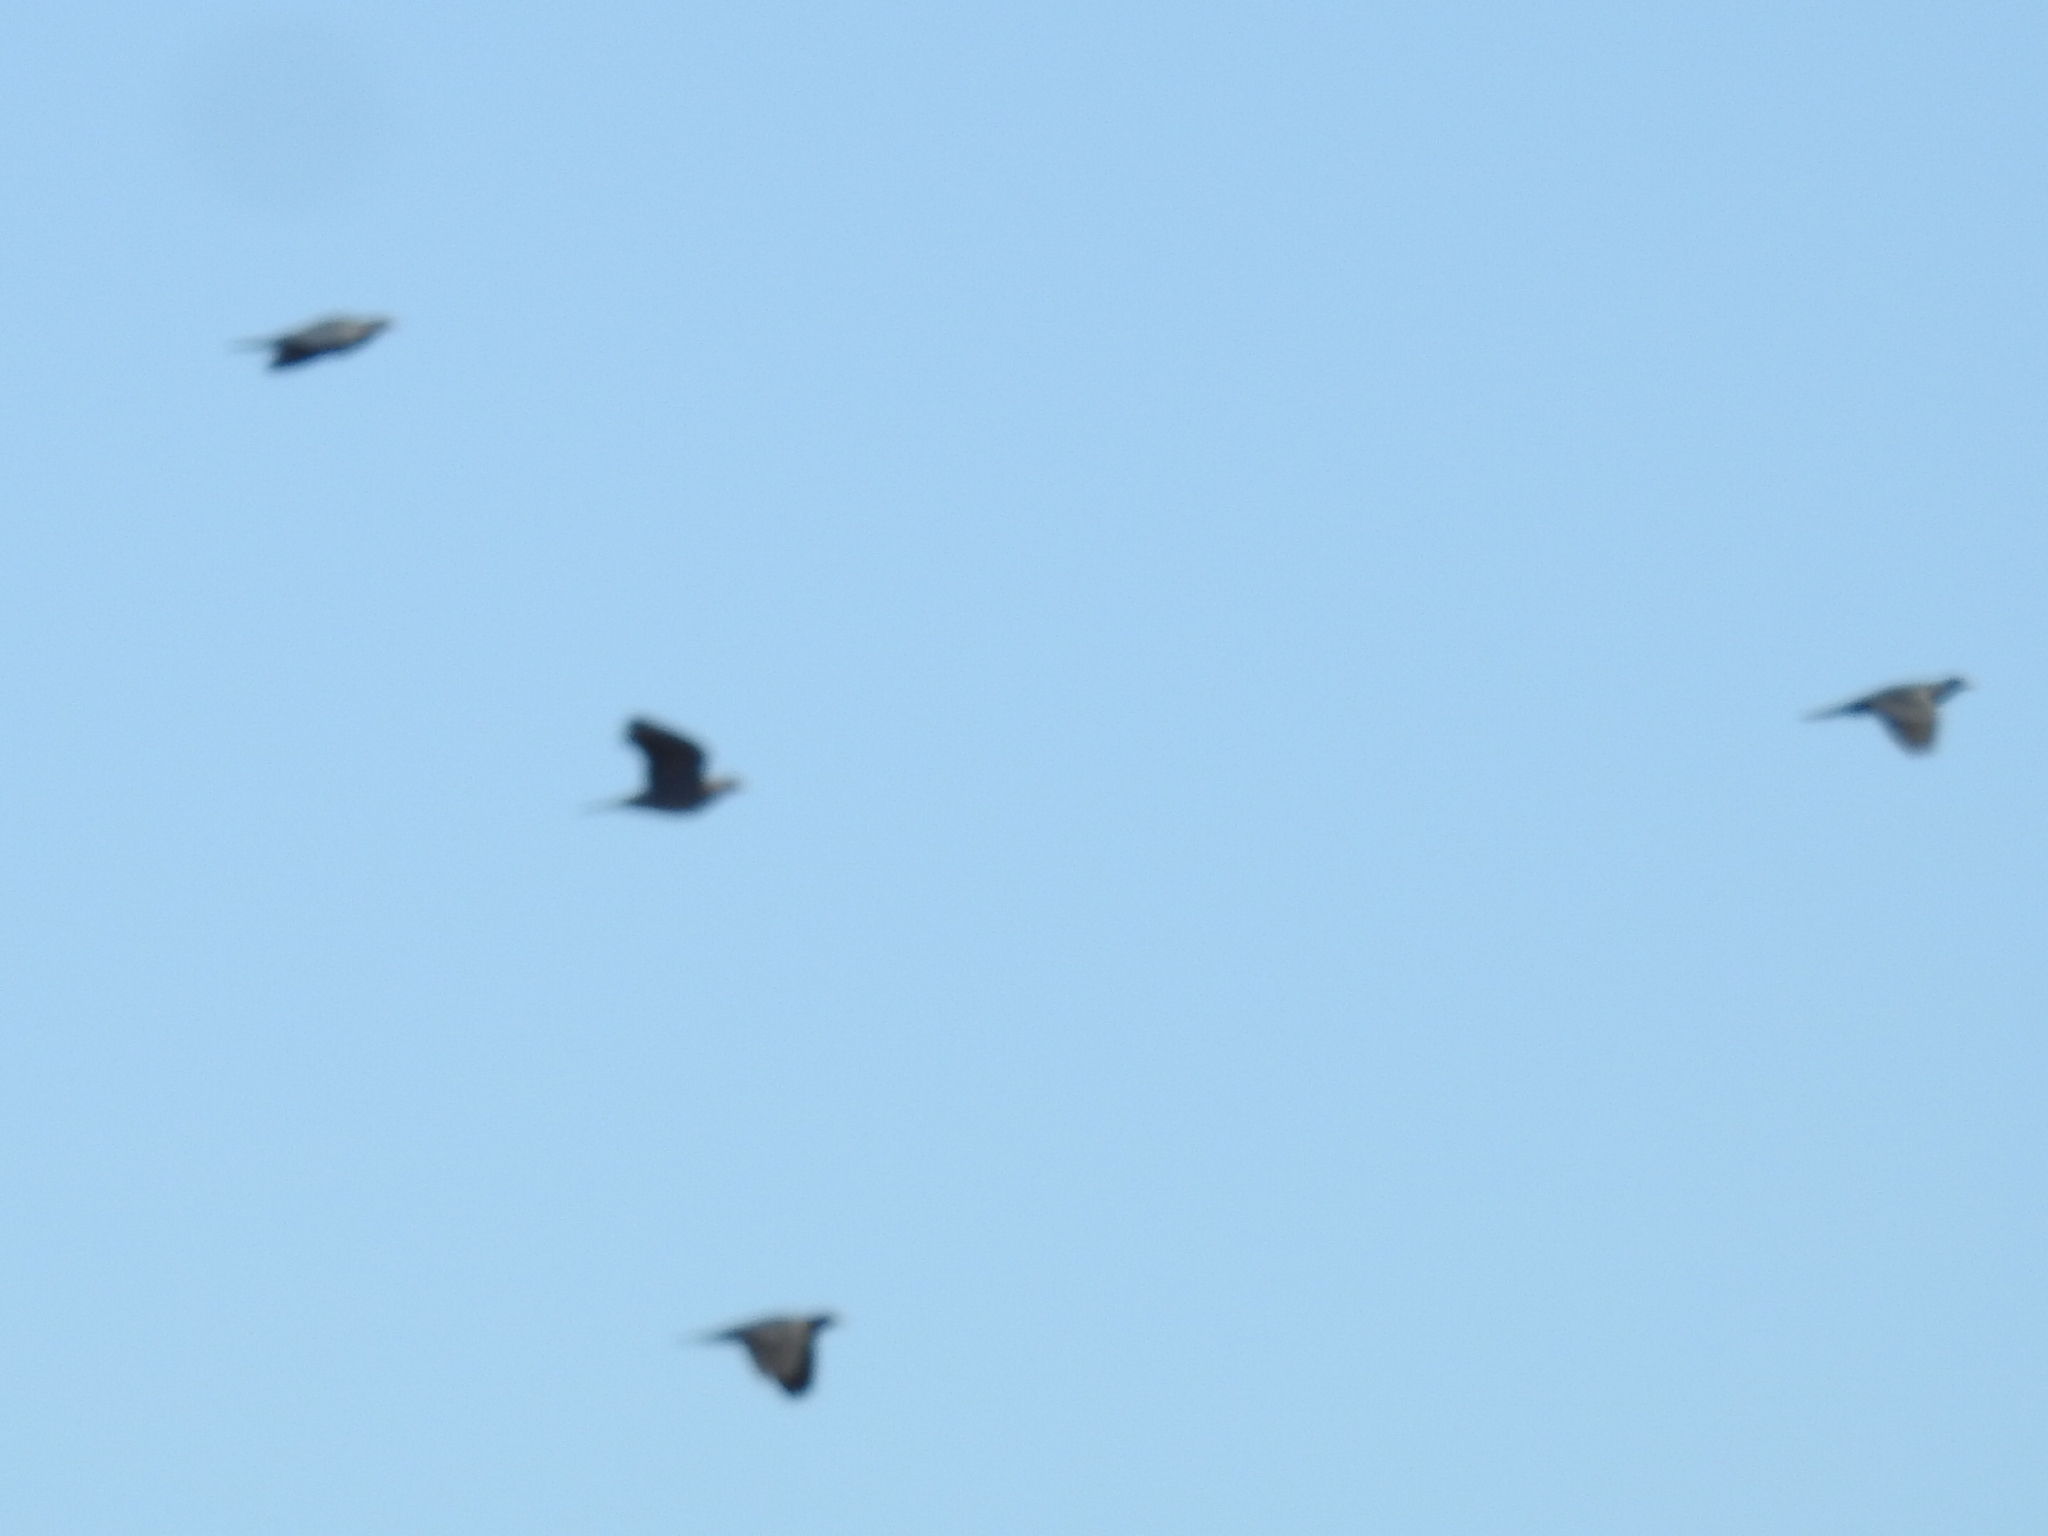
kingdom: Animalia
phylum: Chordata
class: Aves
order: Columbiformes
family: Columbidae
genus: Patagioenas
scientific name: Patagioenas fasciata
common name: Band-tailed pigeon
